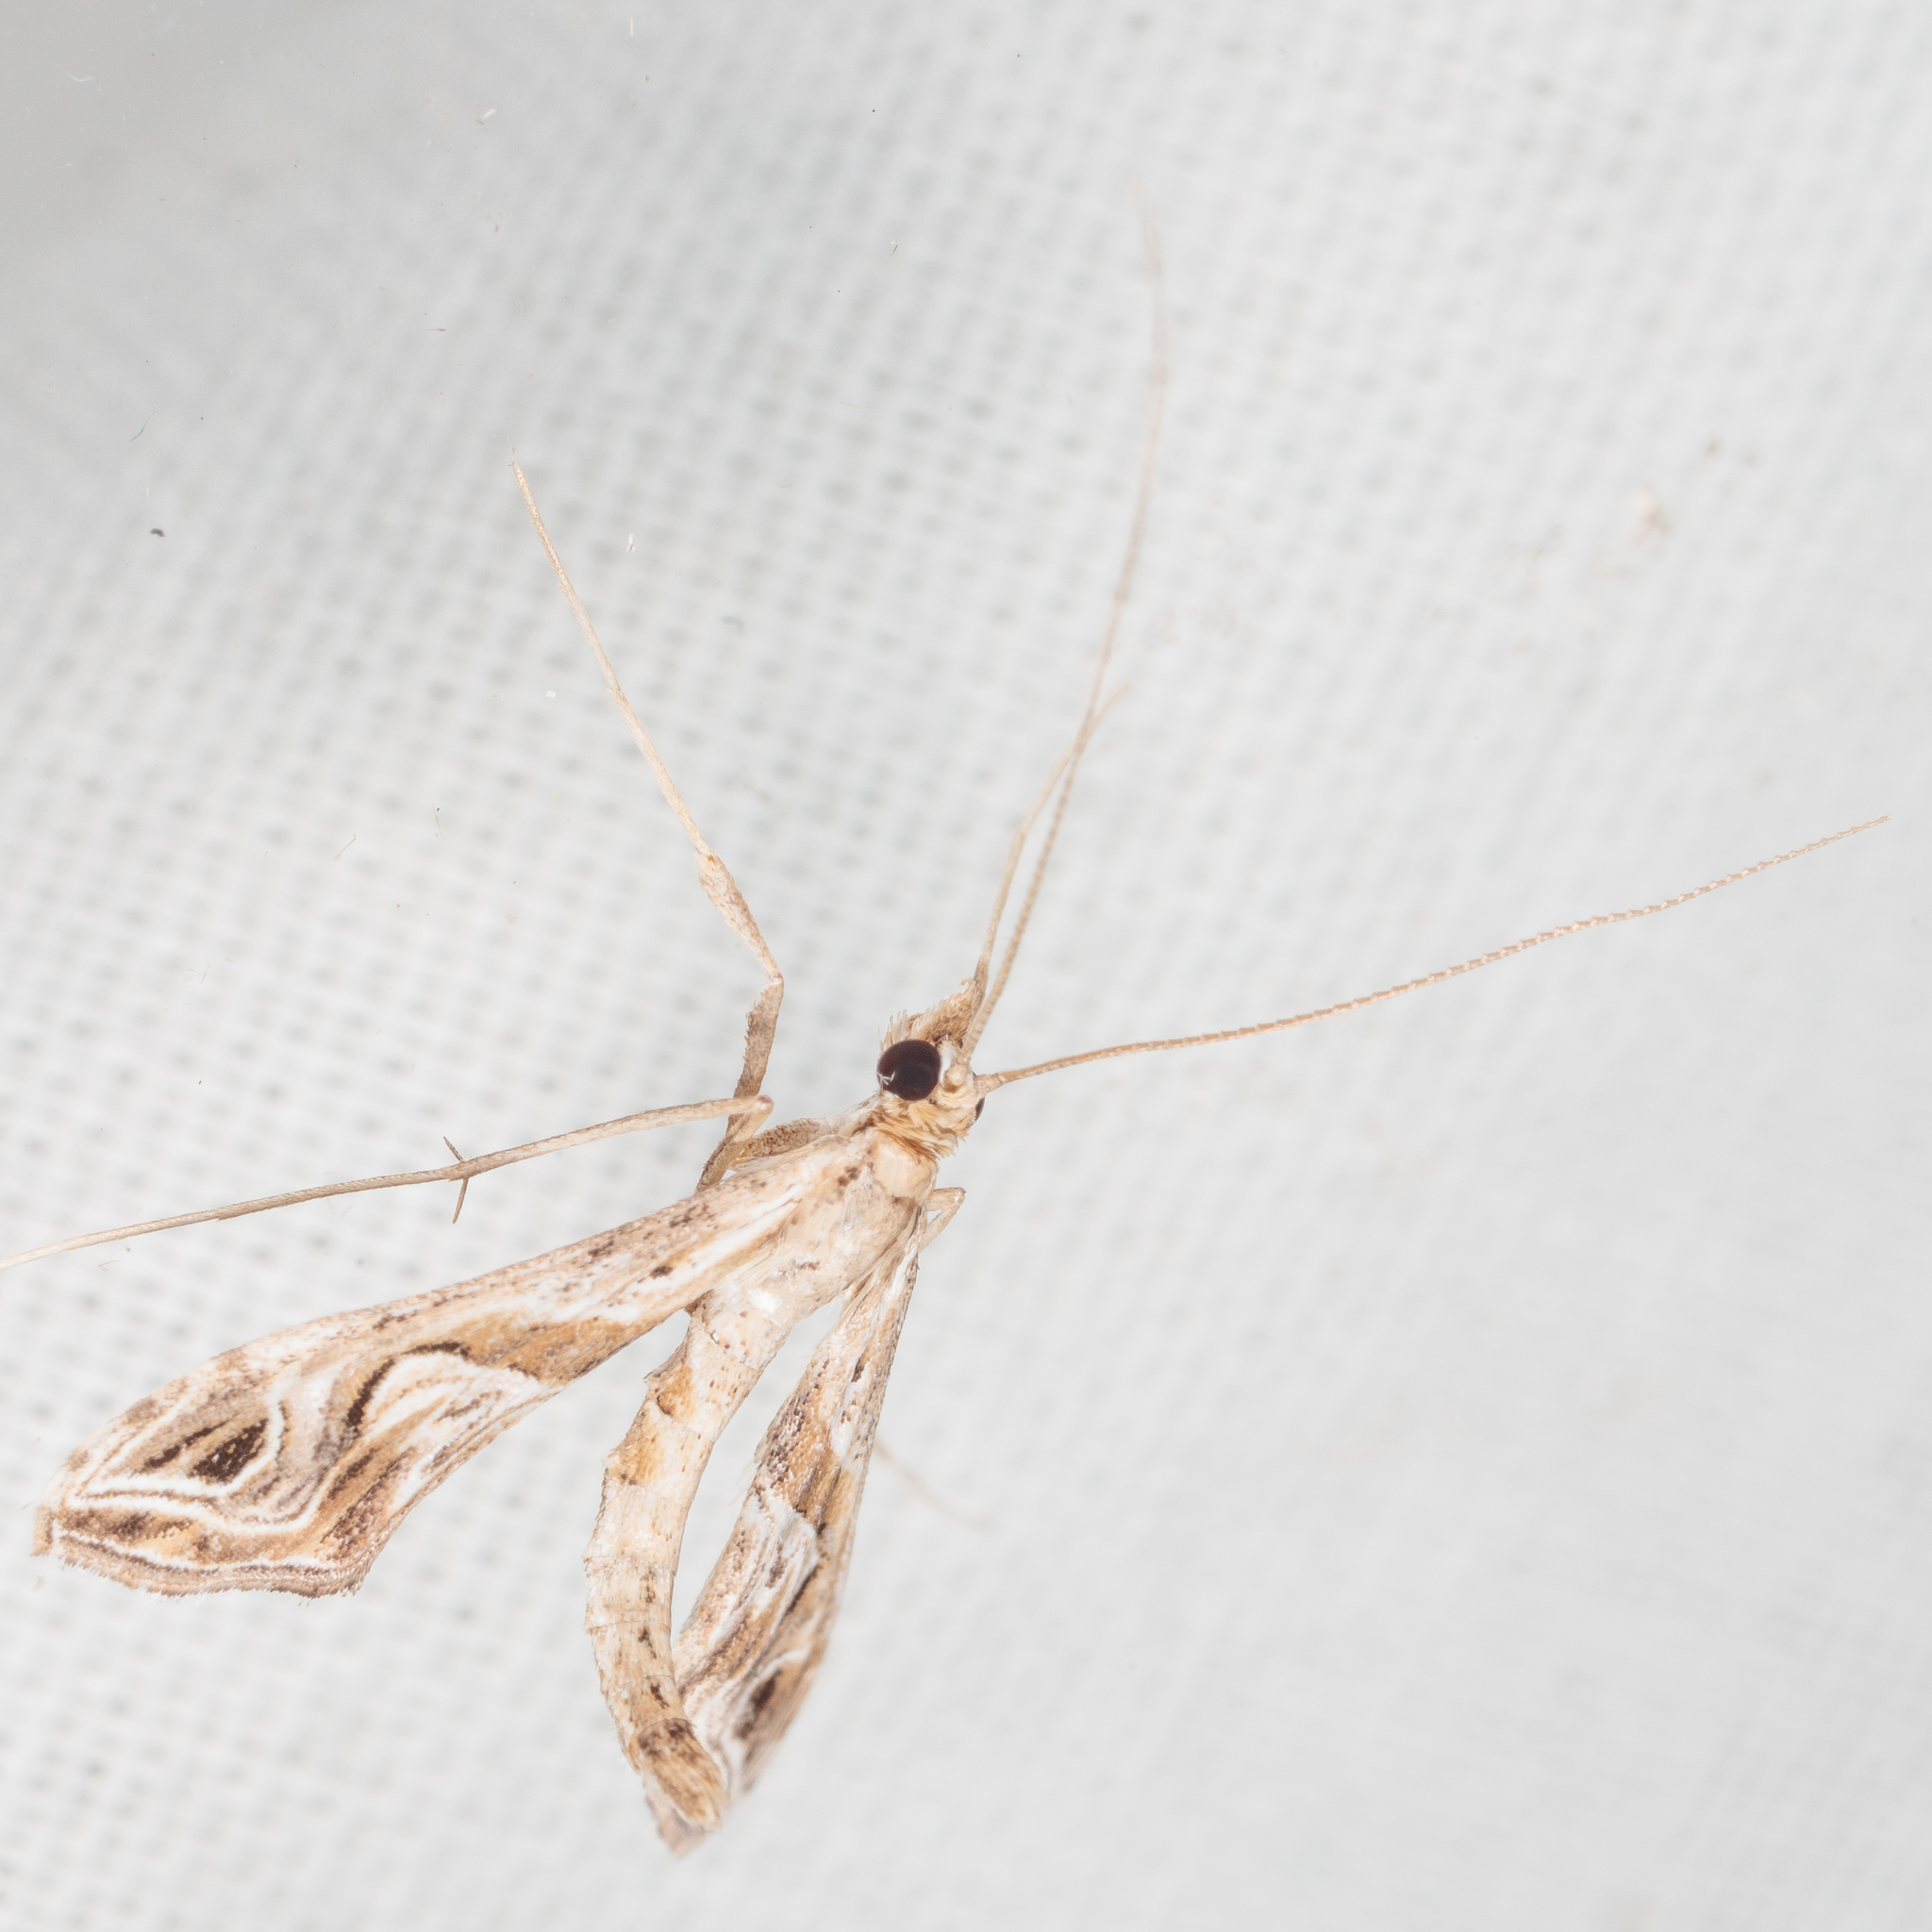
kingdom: Animalia
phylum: Arthropoda
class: Insecta
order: Lepidoptera
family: Crambidae
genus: Lineodes
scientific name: Lineodes integra
